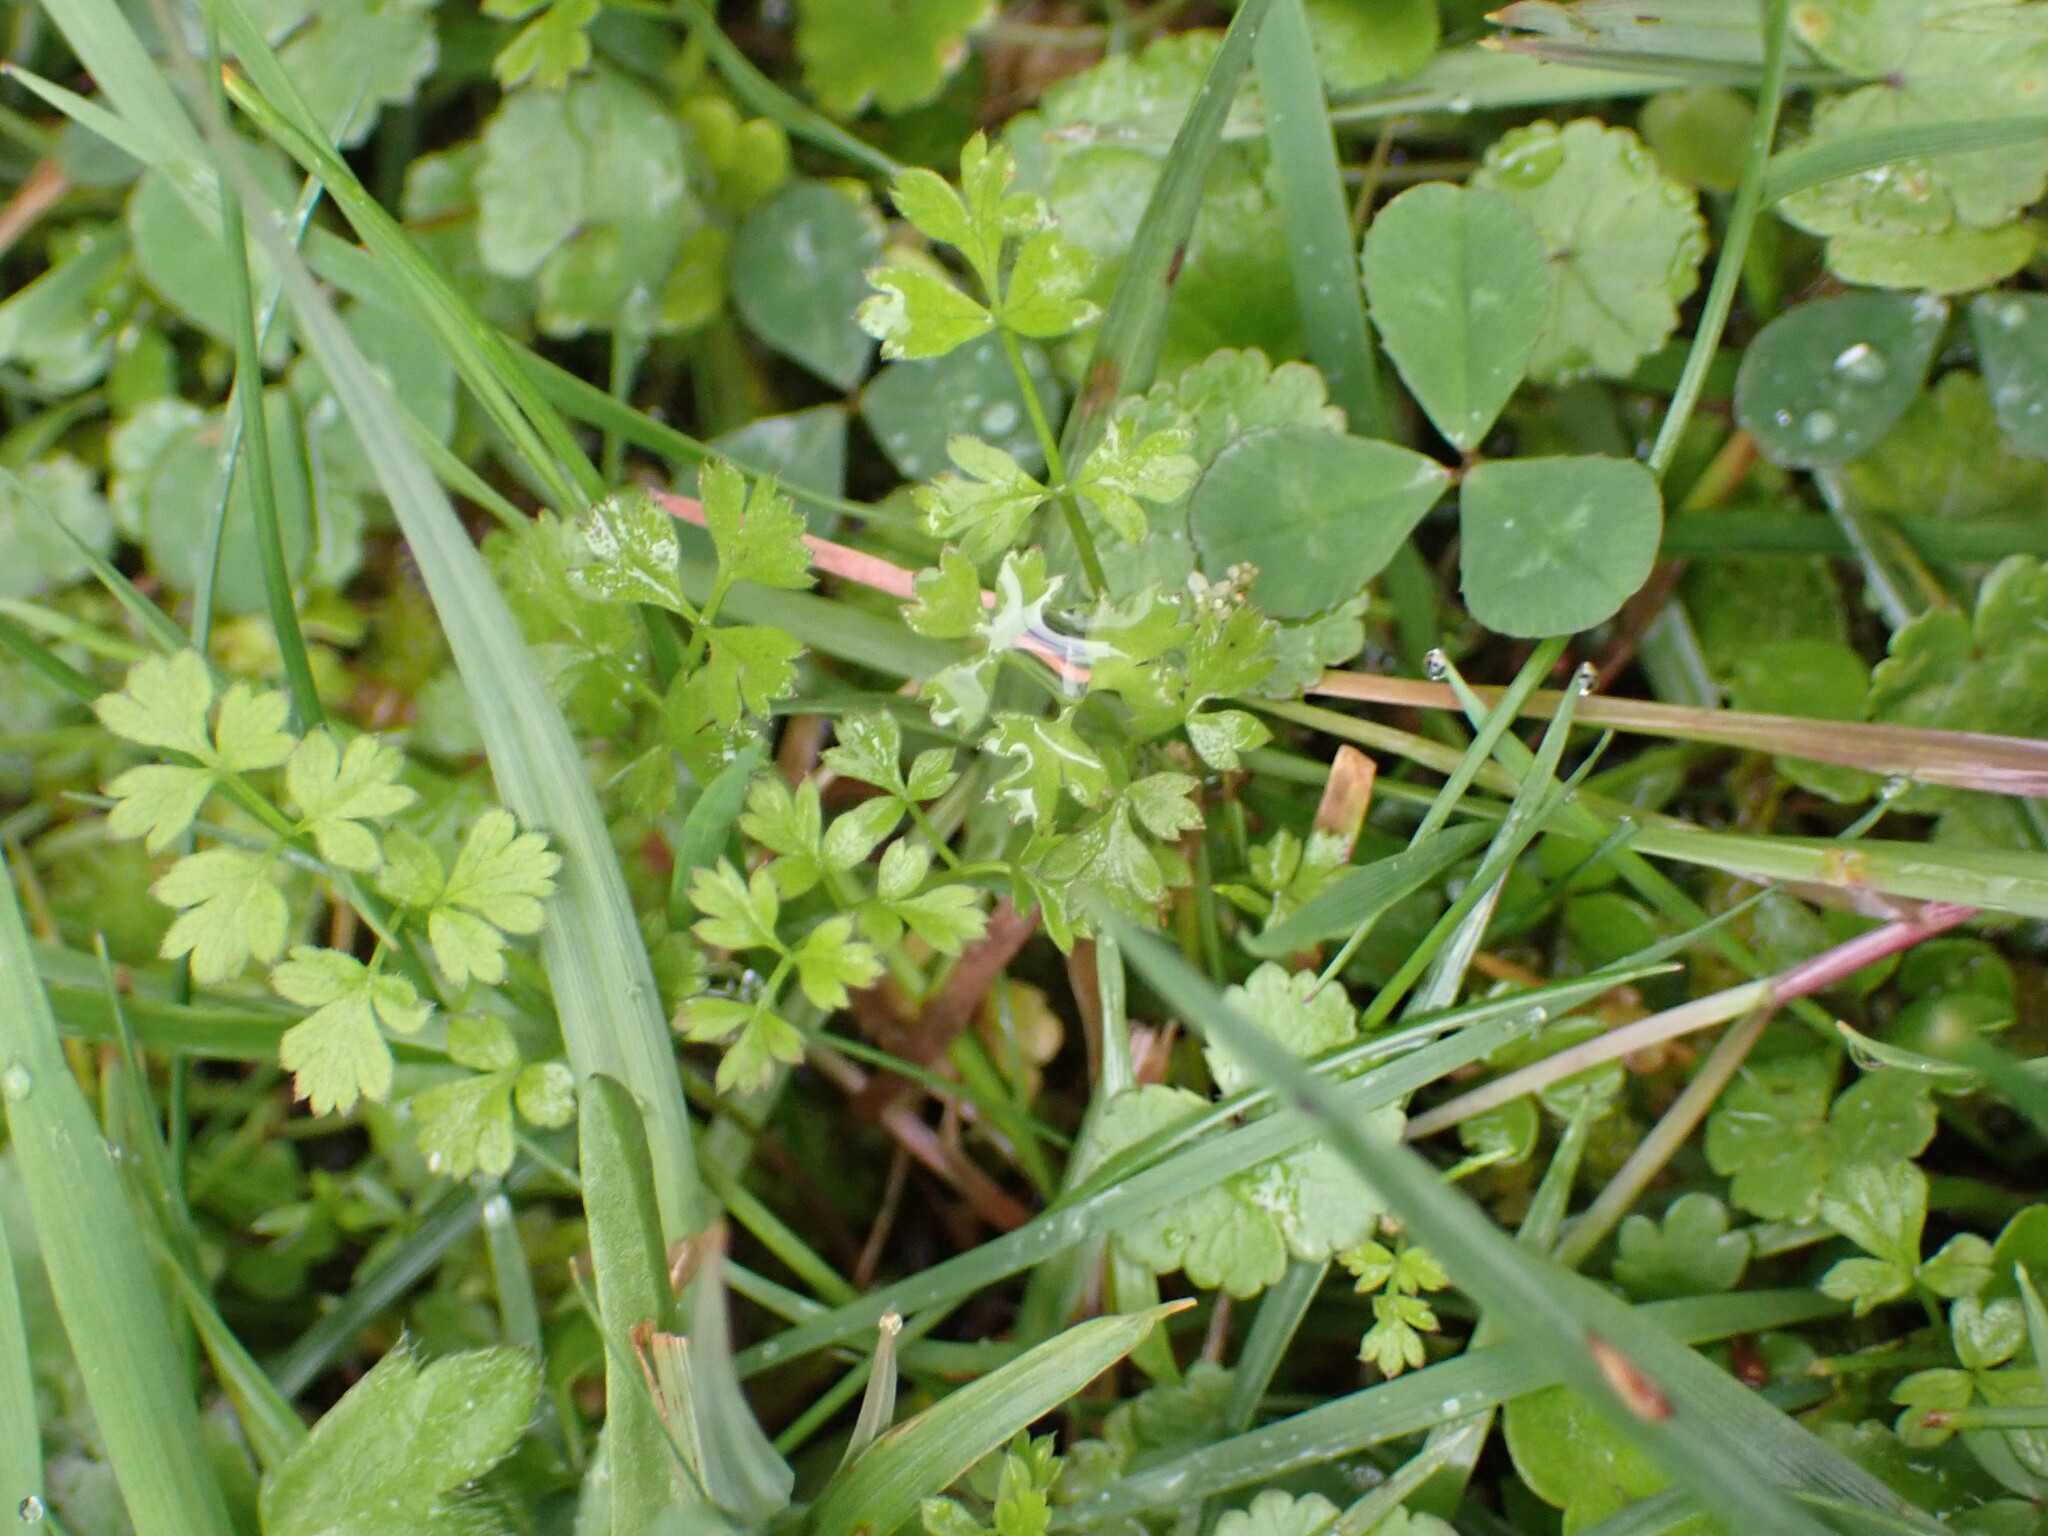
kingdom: Plantae
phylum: Tracheophyta
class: Magnoliopsida
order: Apiales
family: Apiaceae
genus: Chaerophyllum
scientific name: Chaerophyllum ramosum
